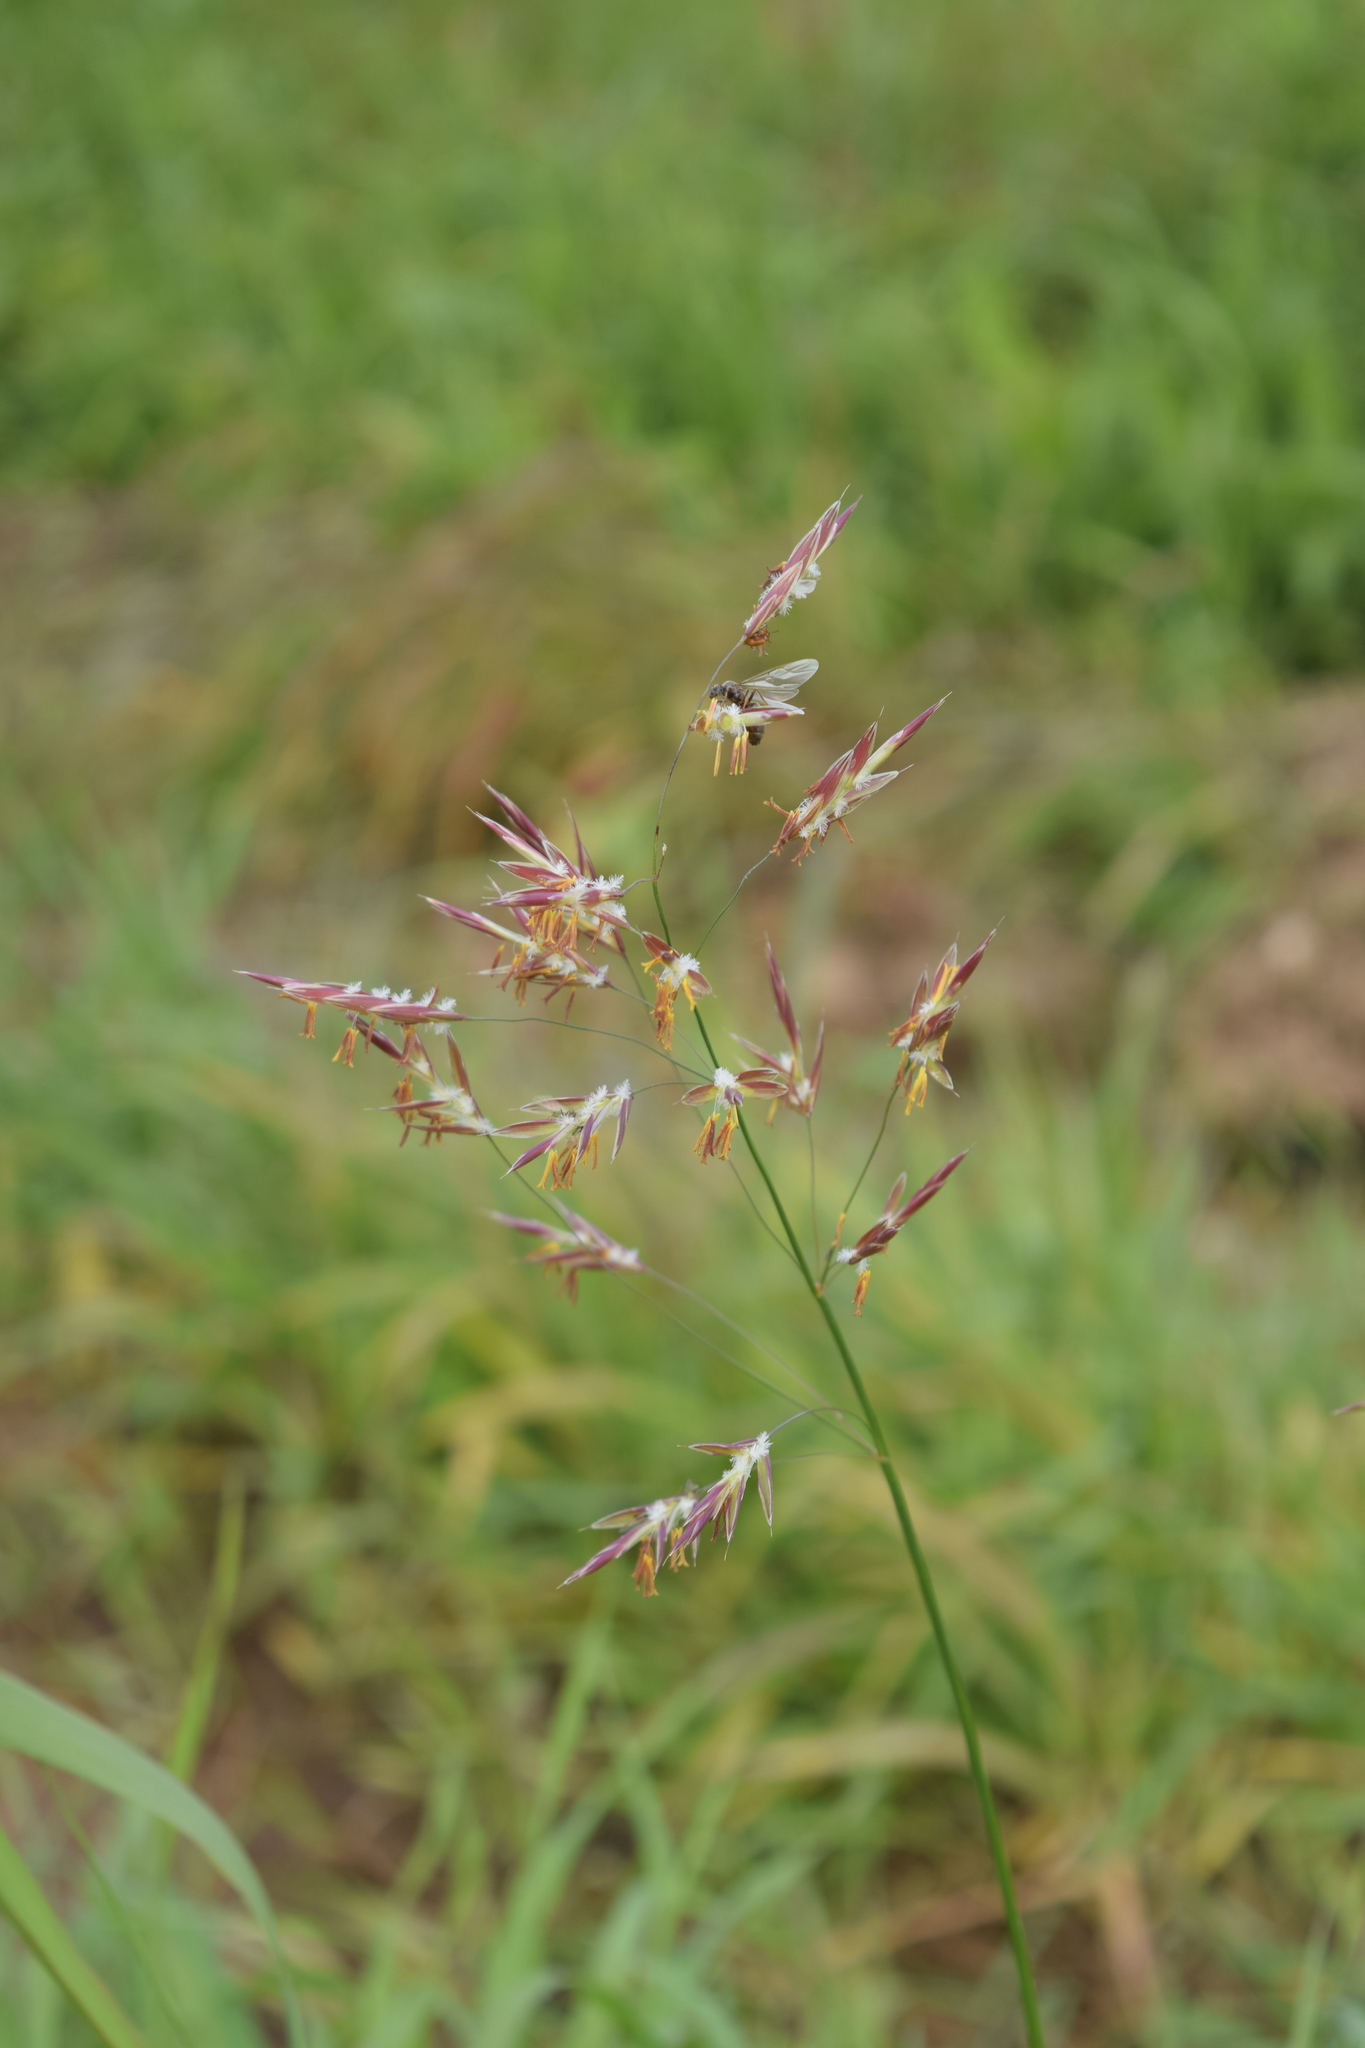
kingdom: Plantae
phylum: Tracheophyta
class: Liliopsida
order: Poales
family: Poaceae
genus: Bromus
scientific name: Bromus inermis
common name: Smooth brome
